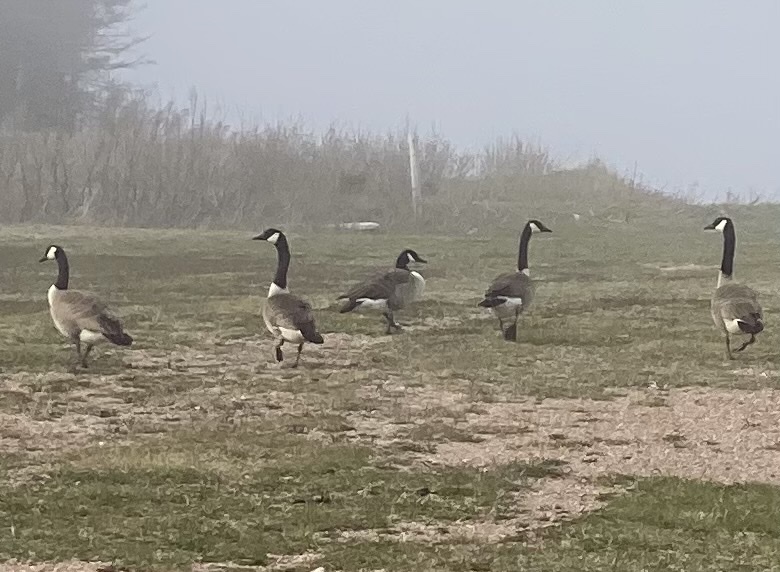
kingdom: Animalia
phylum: Chordata
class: Aves
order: Anseriformes
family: Anatidae
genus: Branta
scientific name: Branta canadensis
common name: Canada goose
